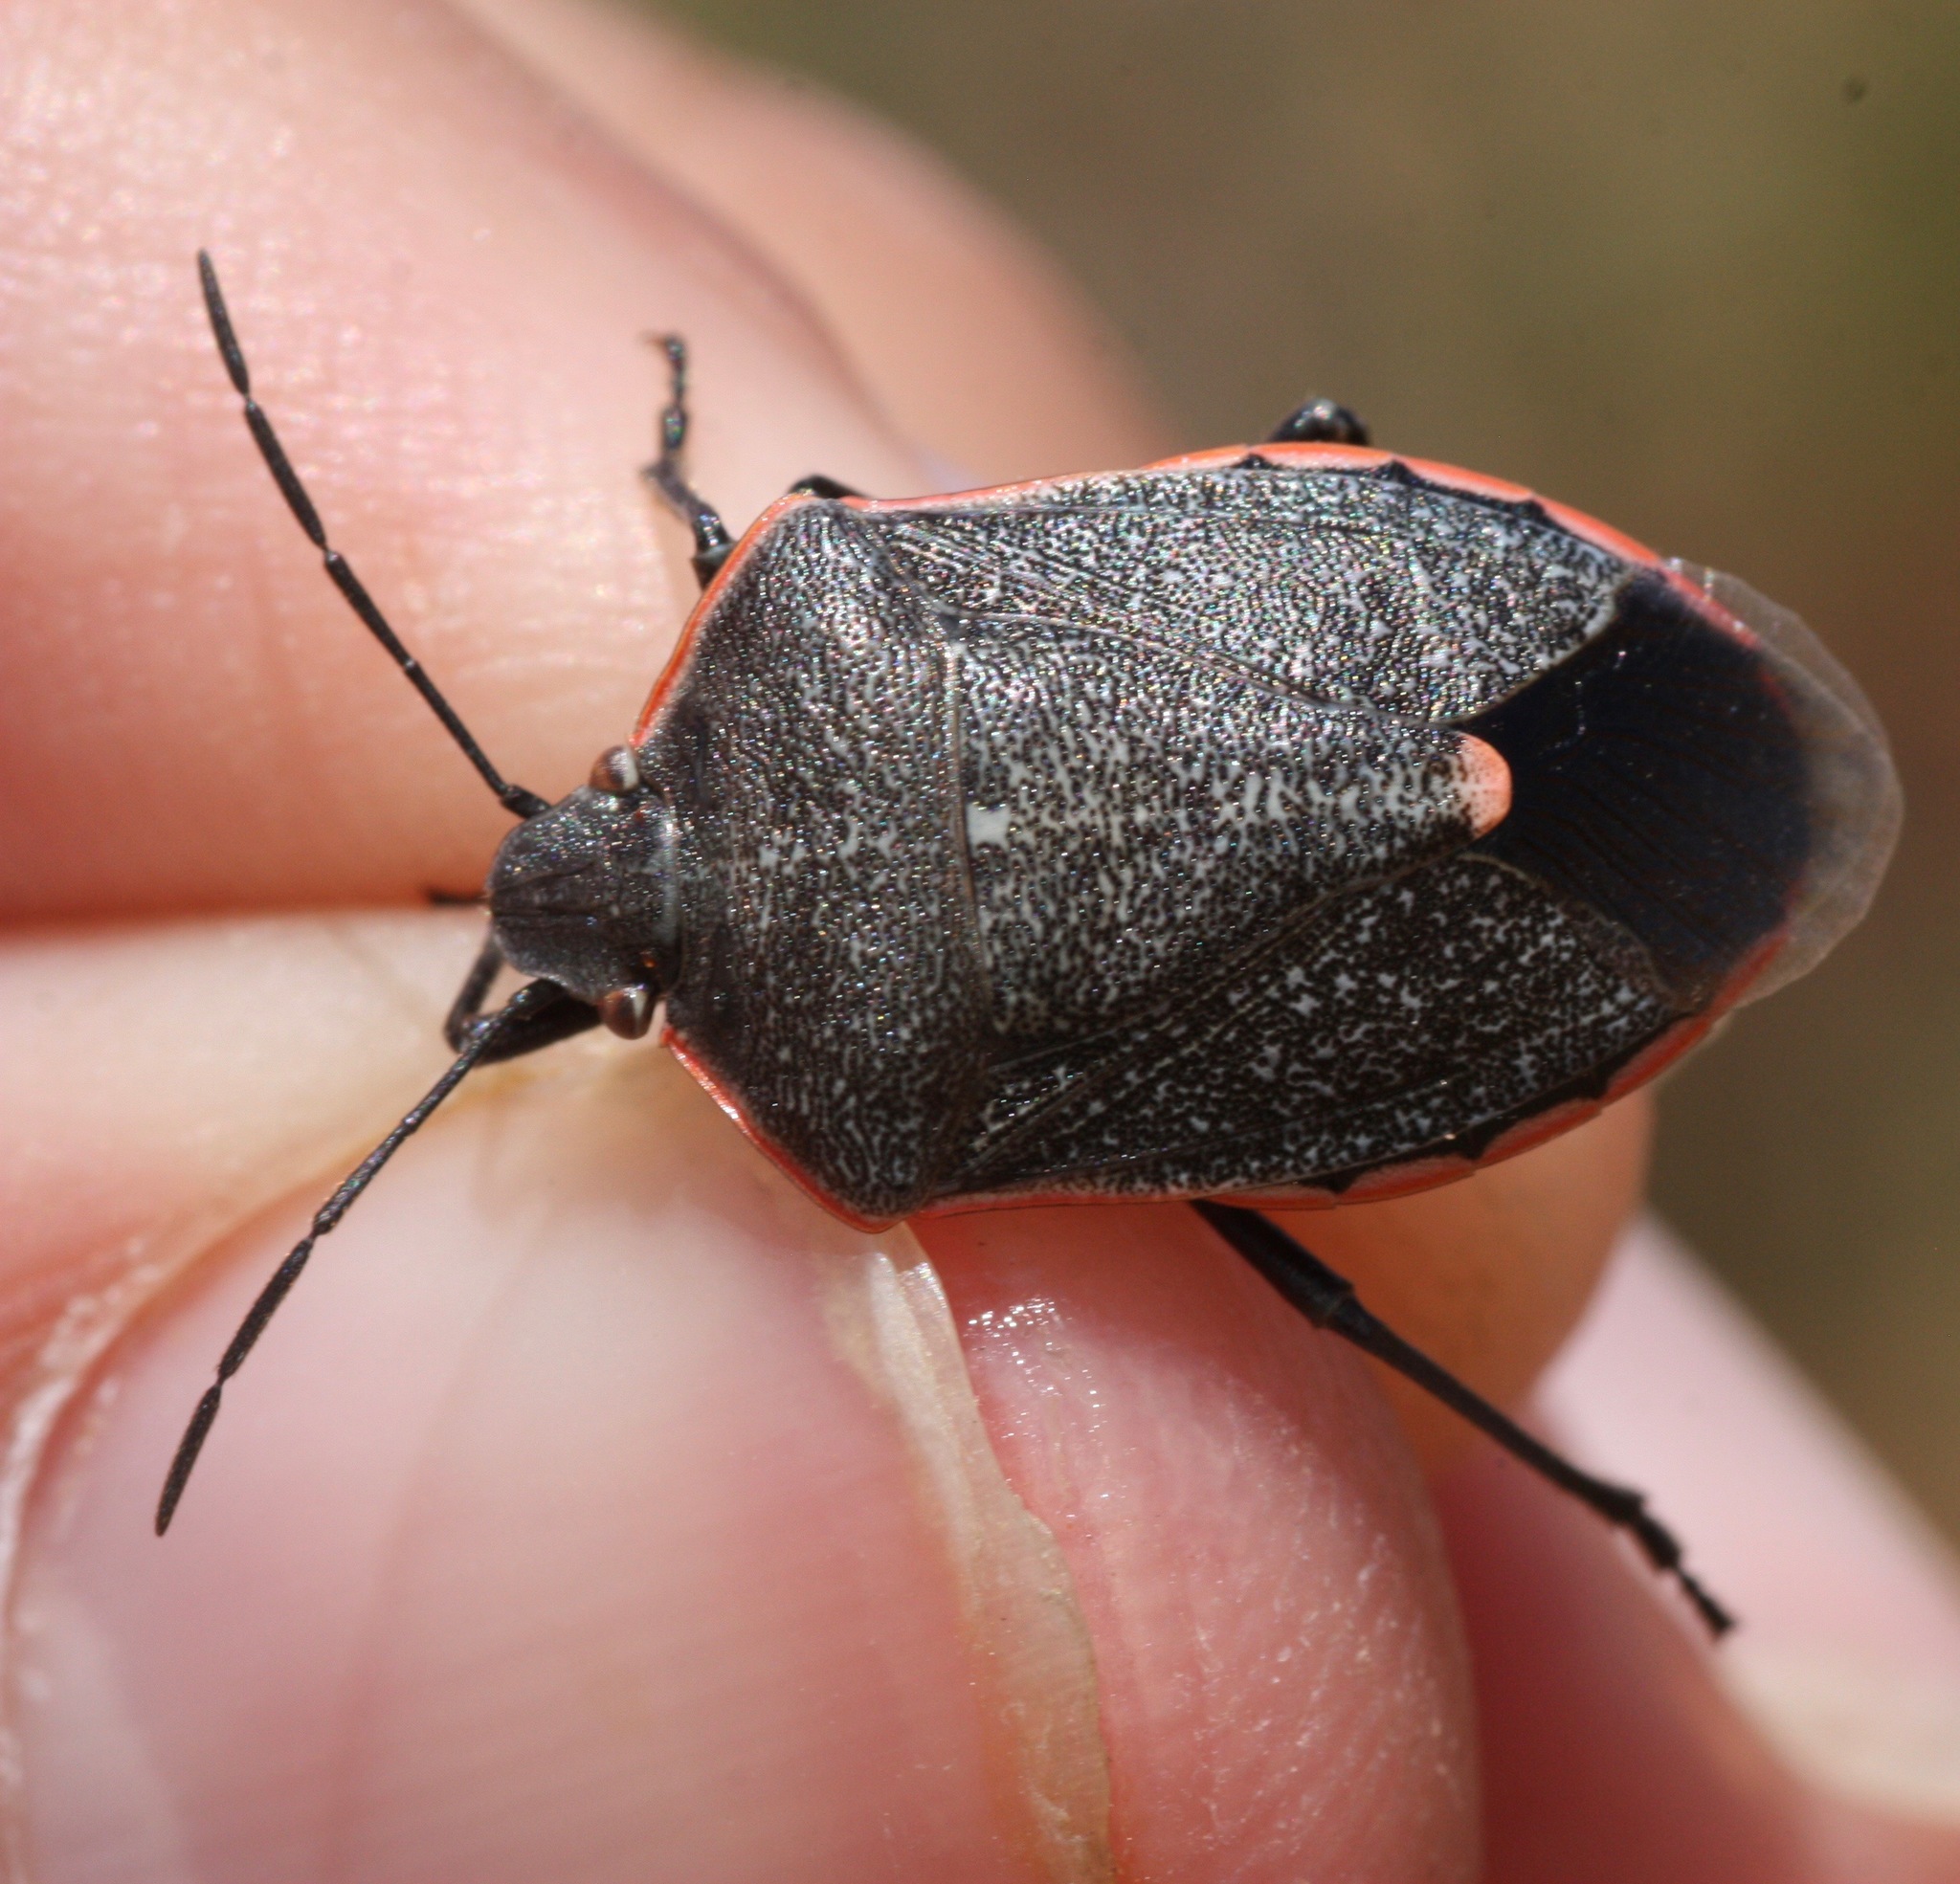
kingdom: Animalia
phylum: Arthropoda
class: Insecta
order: Hemiptera
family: Pentatomidae
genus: Chlorochroa
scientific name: Chlorochroa ligata
